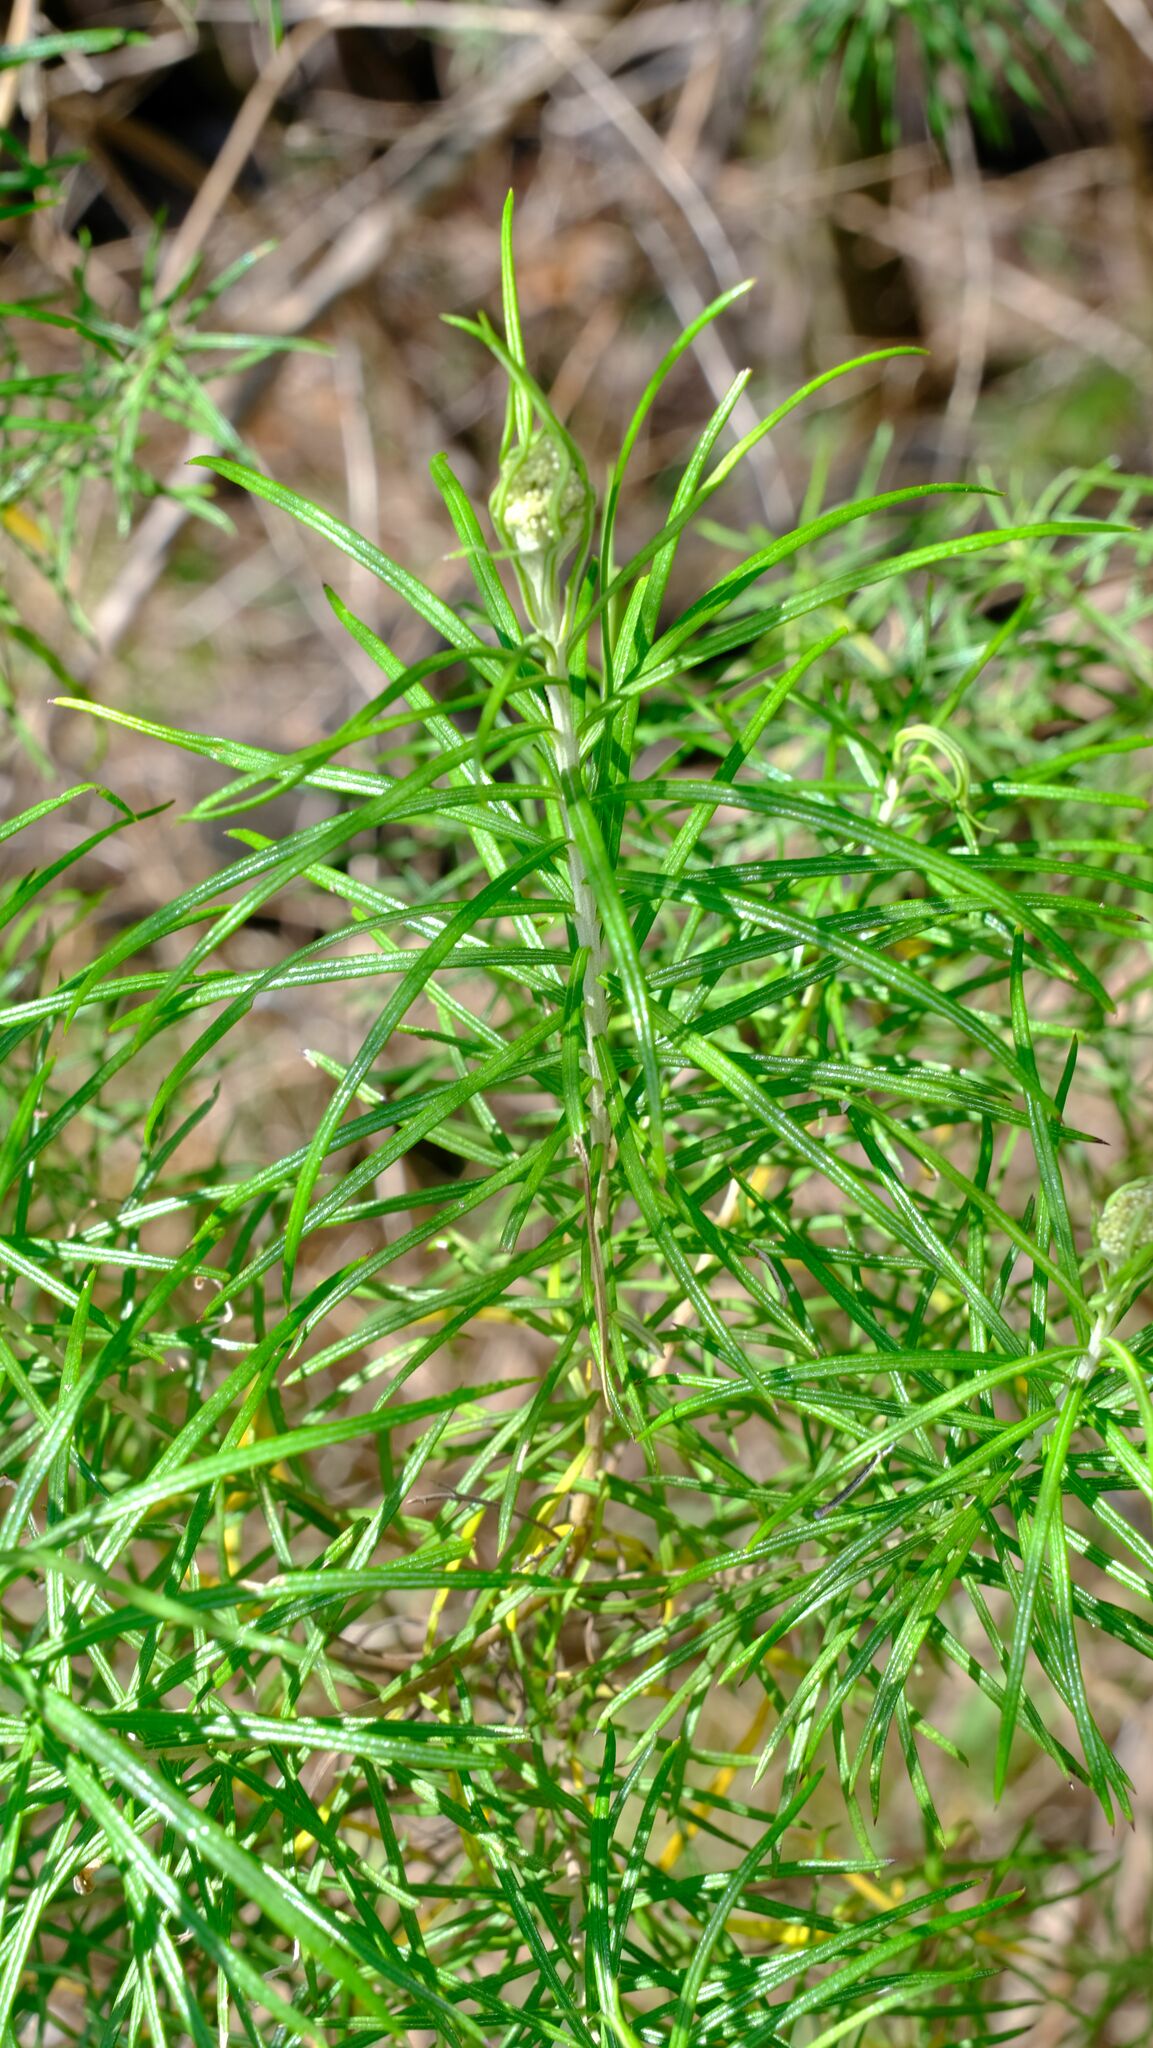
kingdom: Plantae
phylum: Tracheophyta
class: Magnoliopsida
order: Asterales
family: Asteraceae
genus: Cassinia
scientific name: Cassinia longifolia
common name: Longleaf-dogwood
